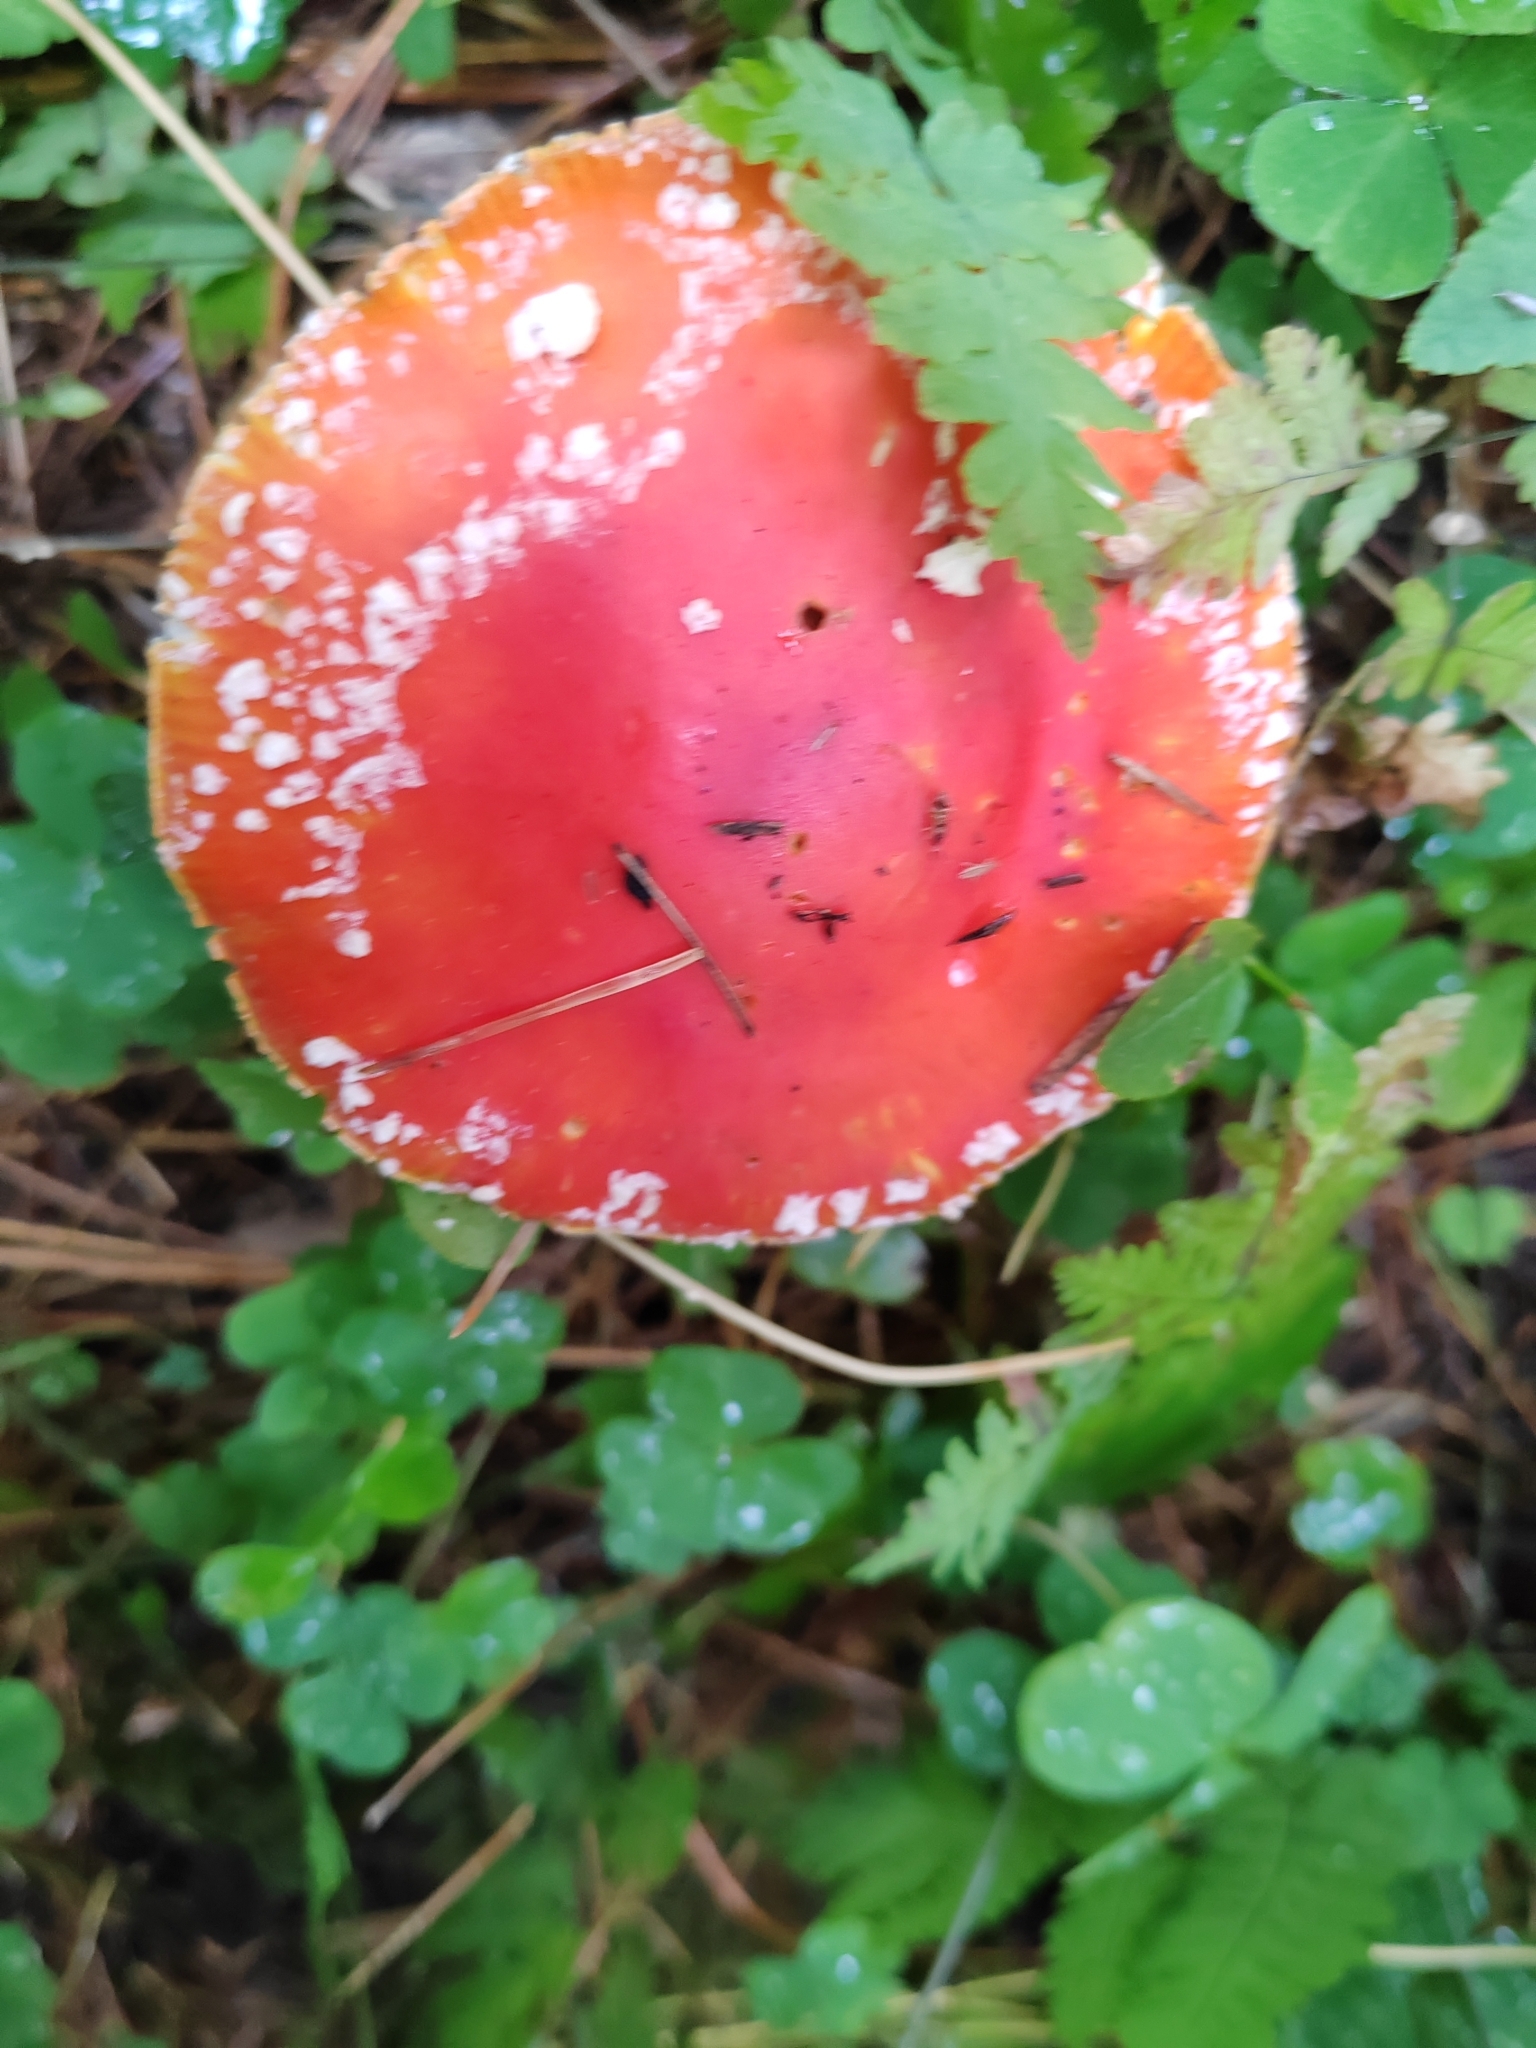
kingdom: Fungi
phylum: Basidiomycota
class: Agaricomycetes
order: Agaricales
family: Amanitaceae
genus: Amanita
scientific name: Amanita muscaria
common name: Fly agaric
